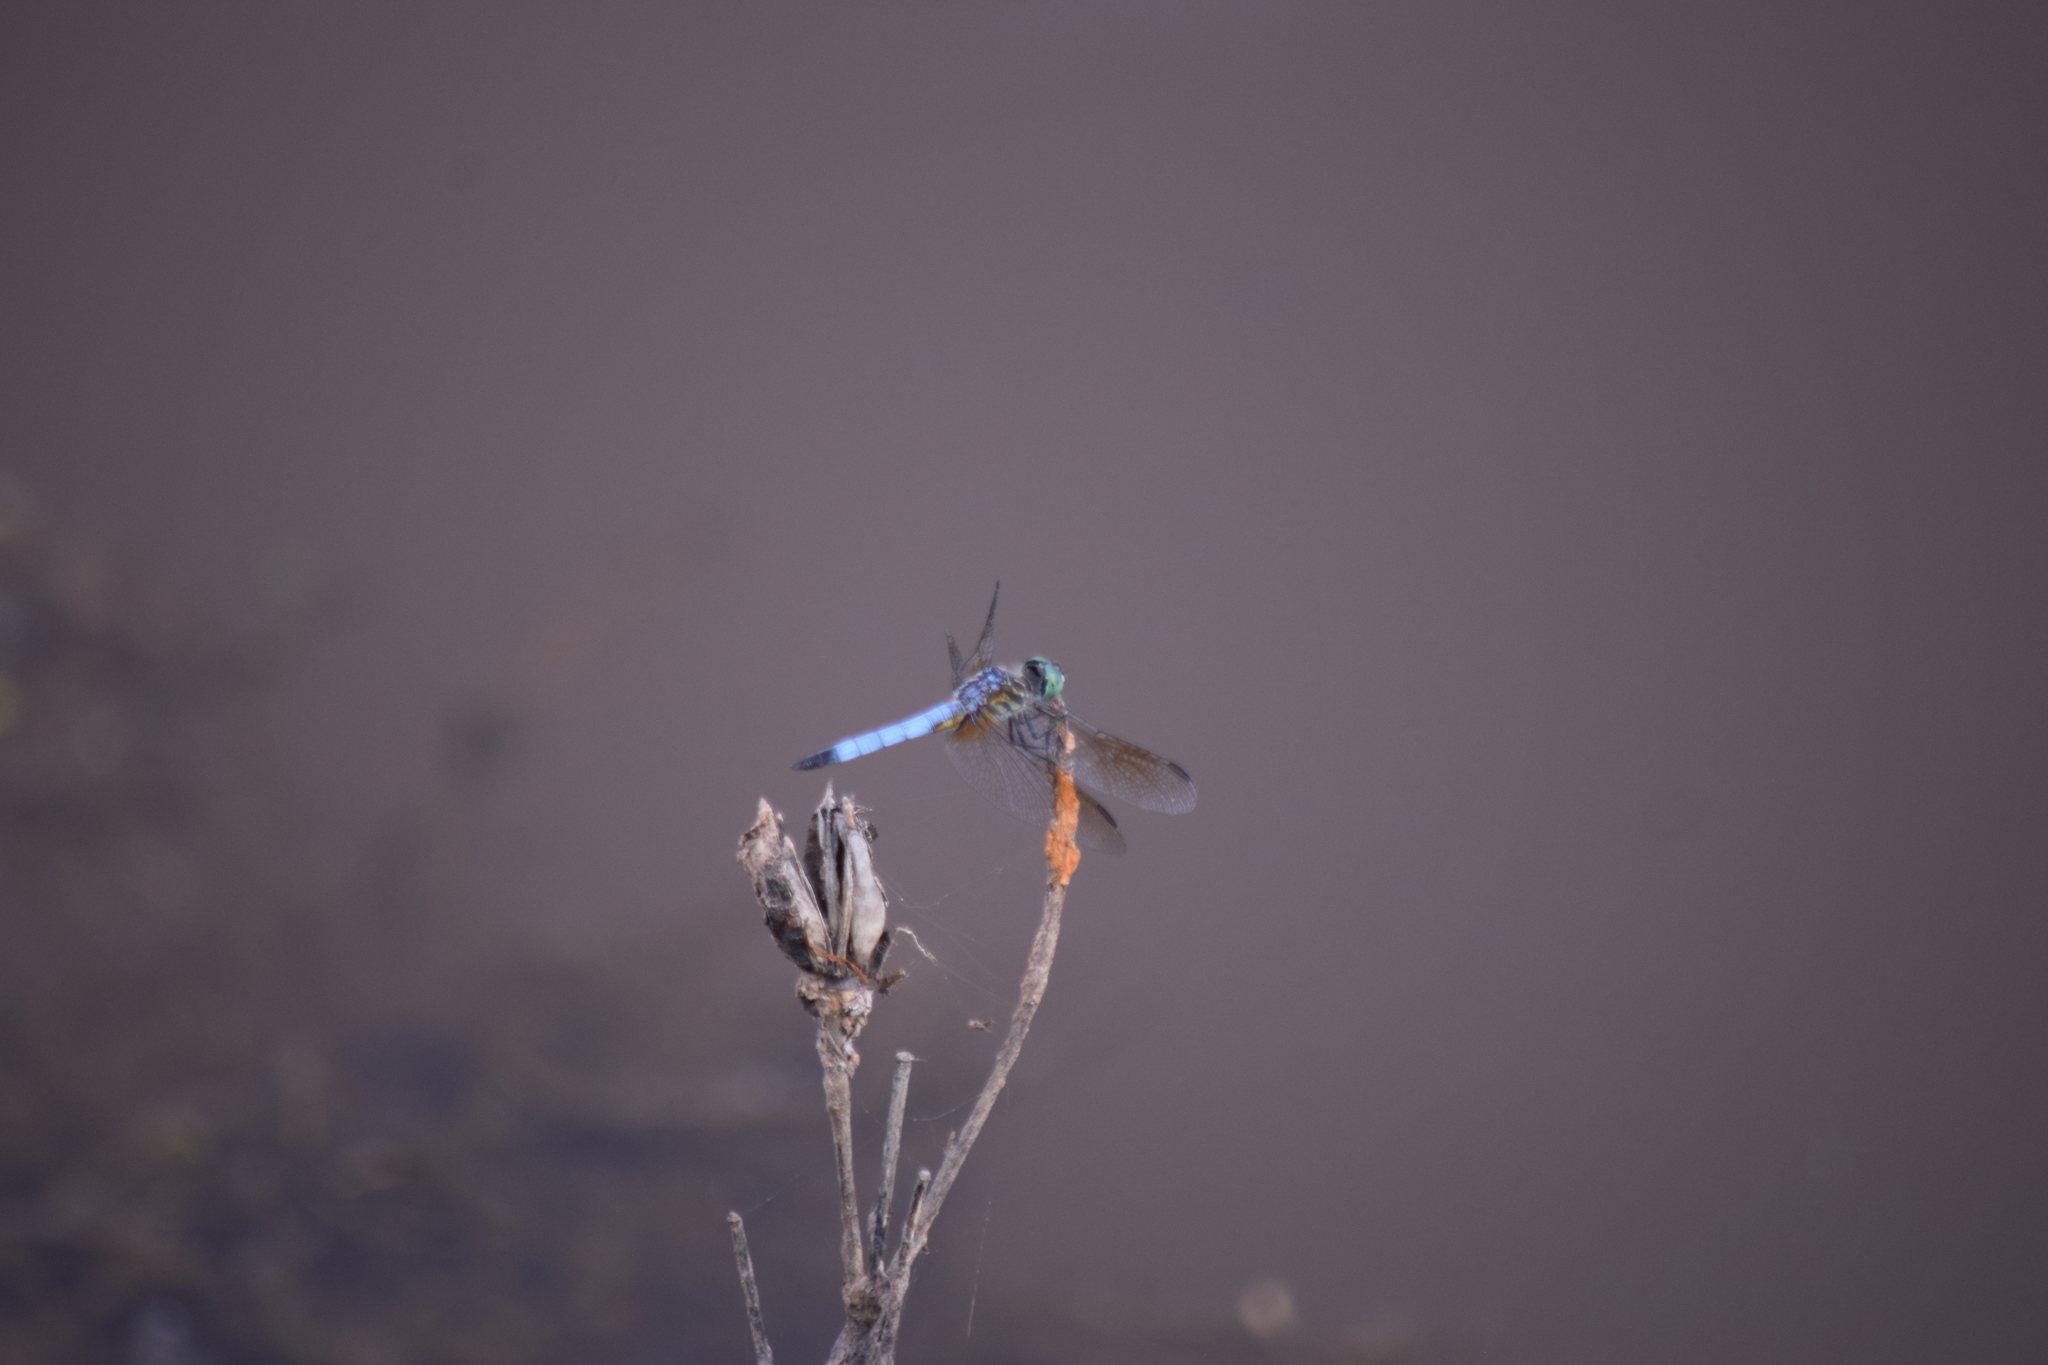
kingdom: Animalia
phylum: Arthropoda
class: Insecta
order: Odonata
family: Libellulidae
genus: Pachydiplax
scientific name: Pachydiplax longipennis
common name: Blue dasher
